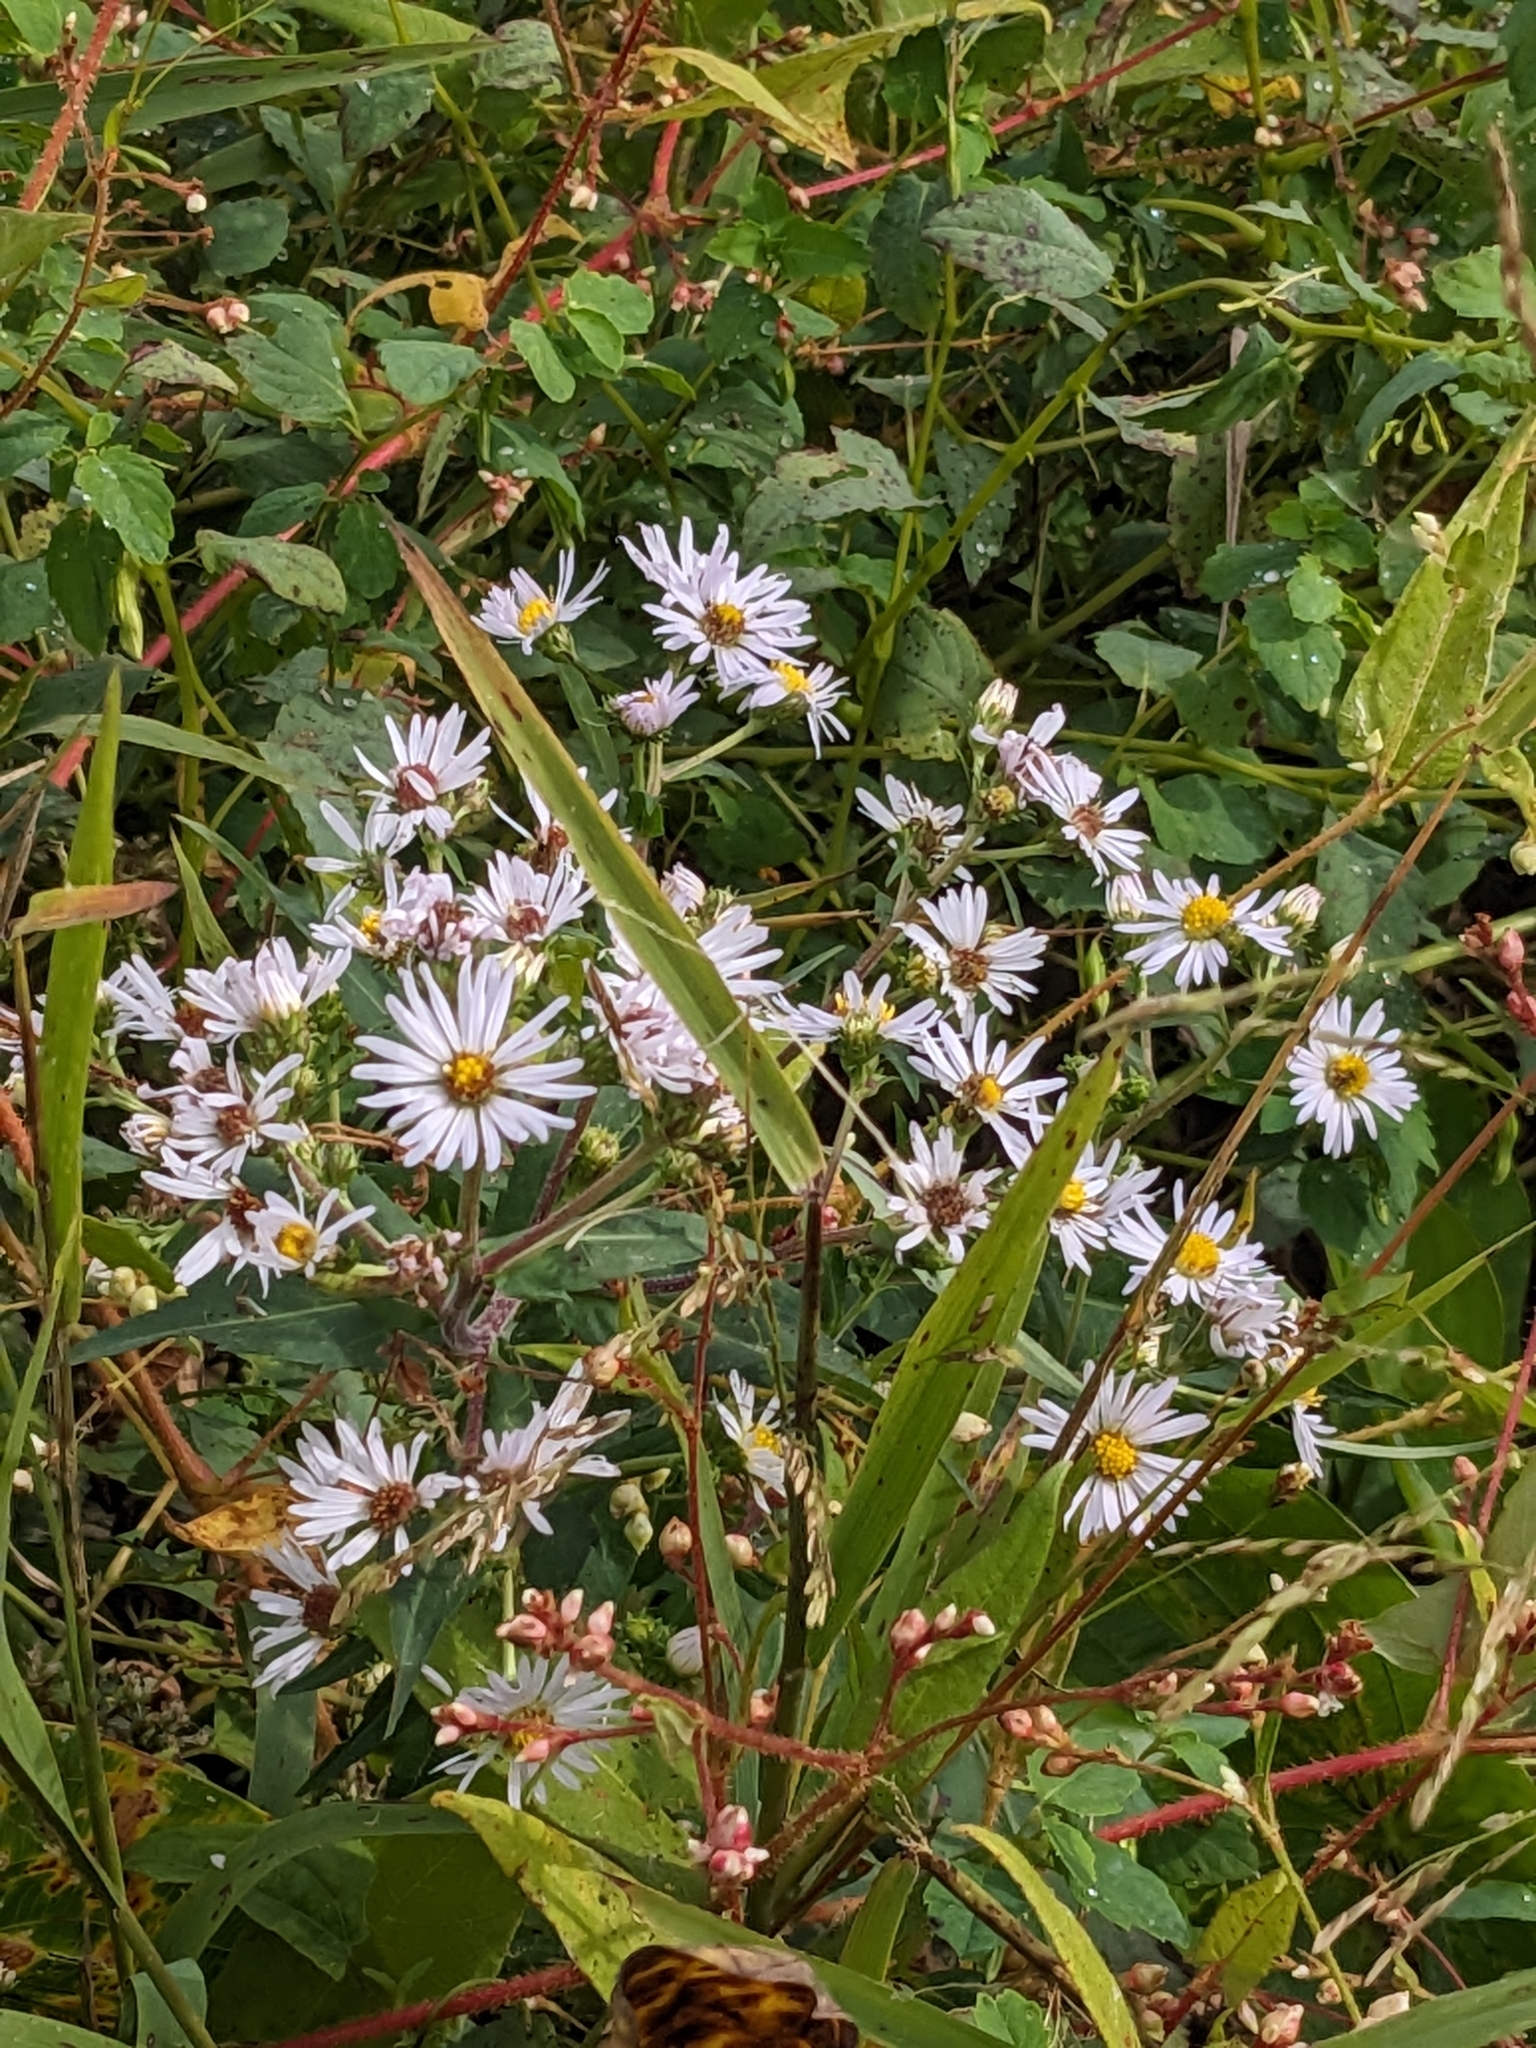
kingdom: Plantae
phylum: Tracheophyta
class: Magnoliopsida
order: Asterales
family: Asteraceae
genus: Symphyotrichum
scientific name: Symphyotrichum puniceum
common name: Bog aster
